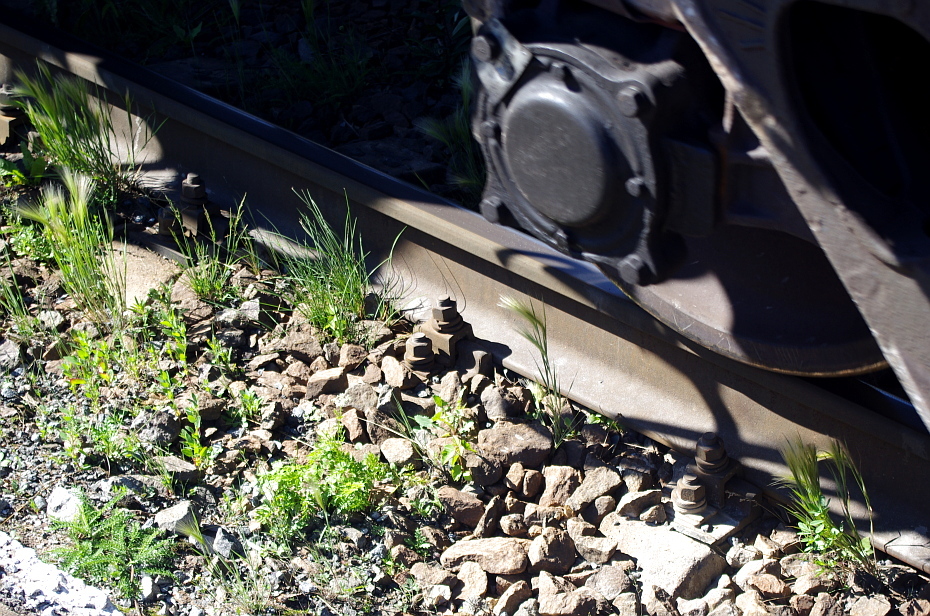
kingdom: Plantae
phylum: Tracheophyta
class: Liliopsida
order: Poales
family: Poaceae
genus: Hordeum
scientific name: Hordeum jubatum
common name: Foxtail barley
